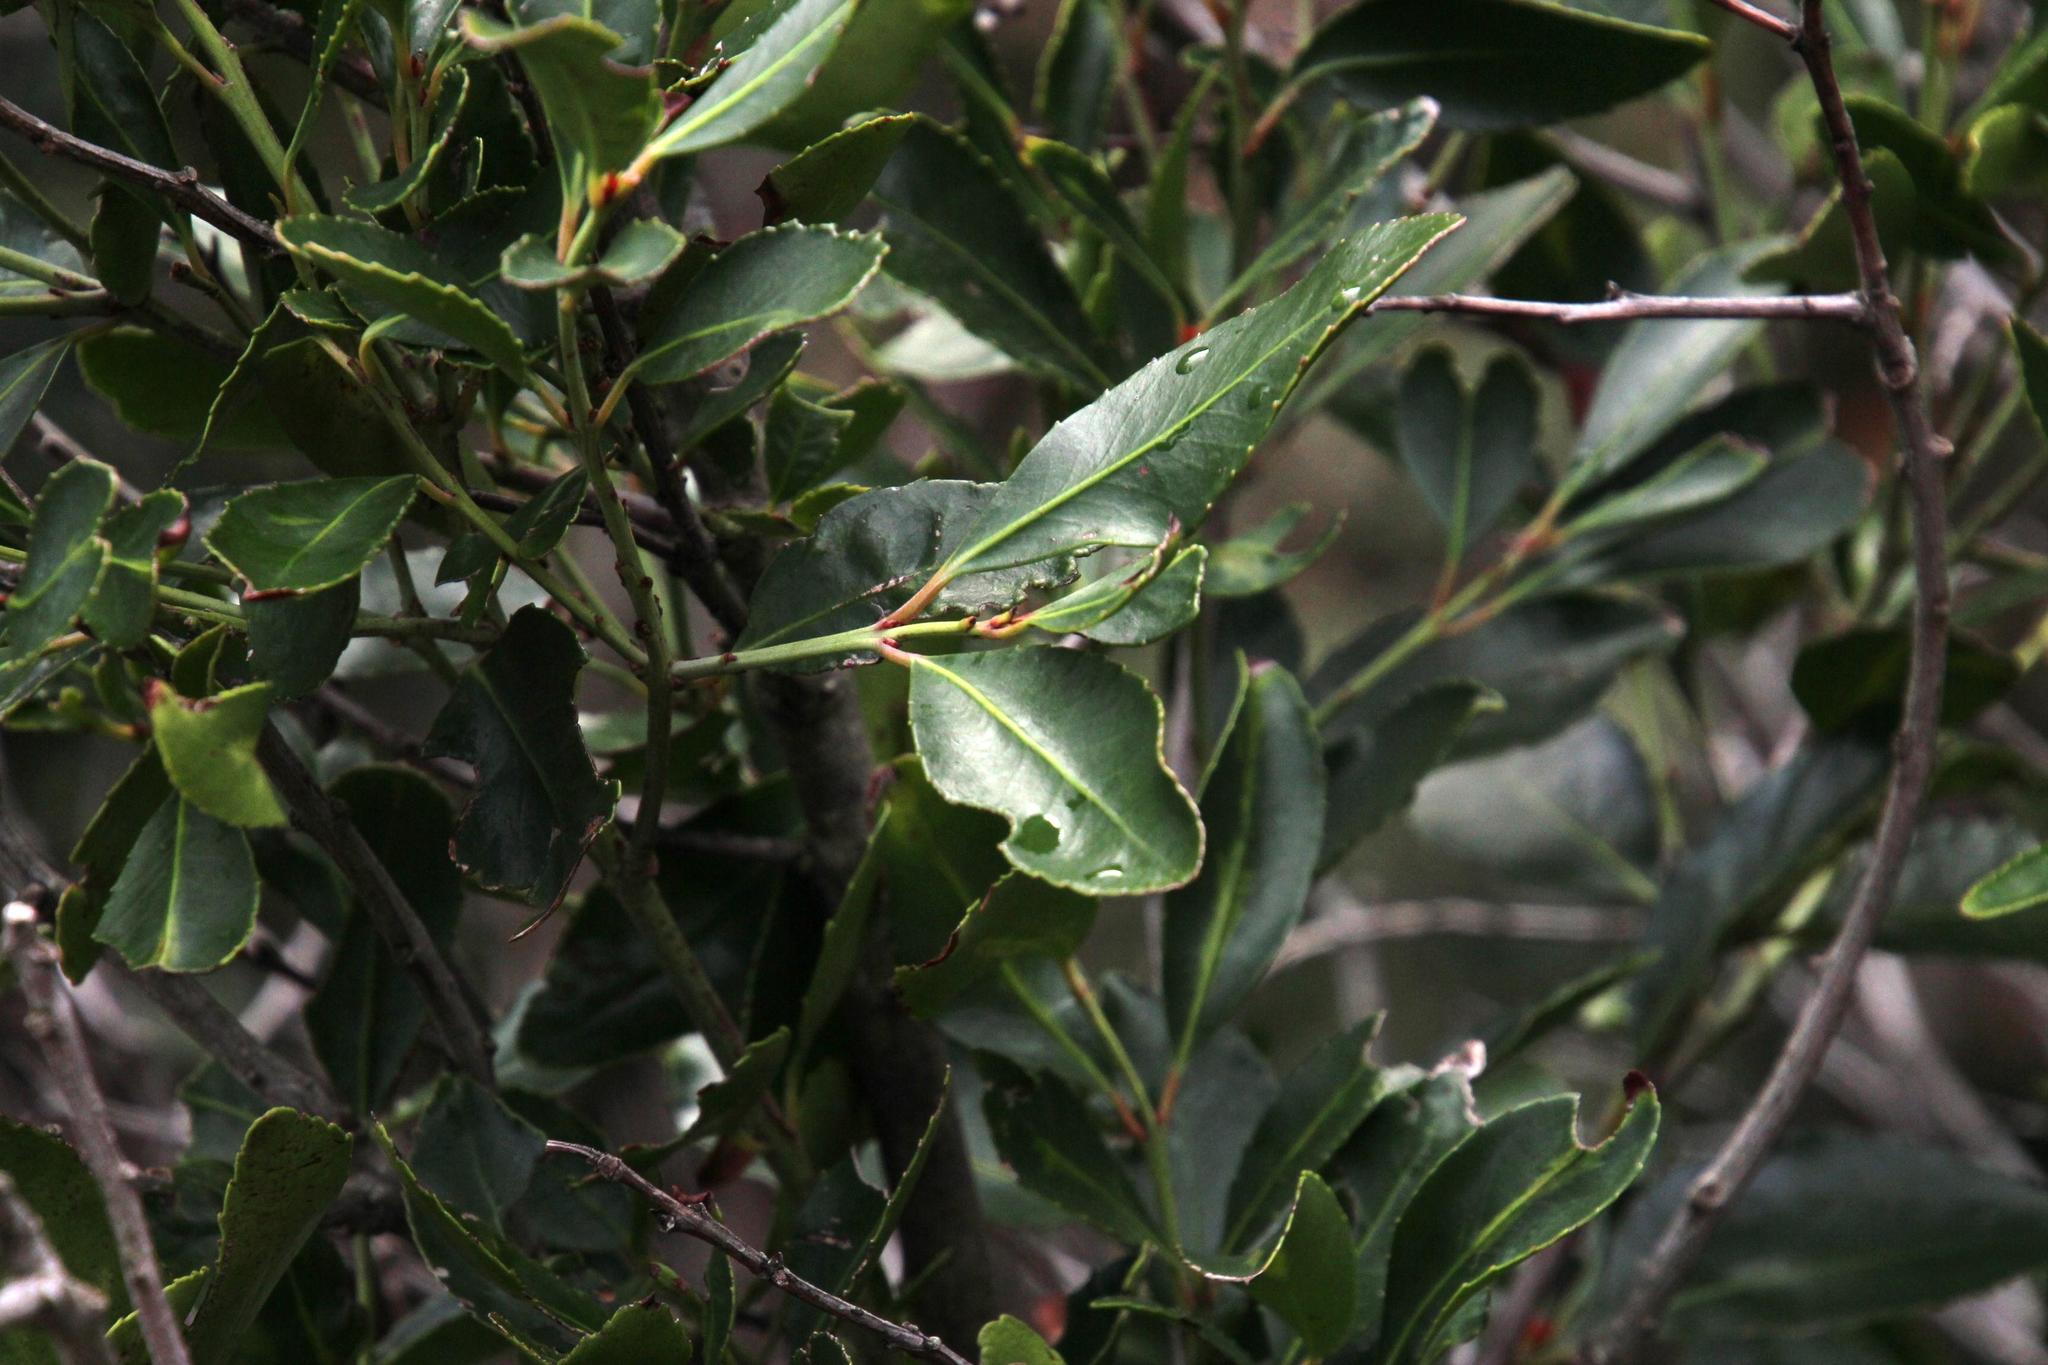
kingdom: Plantae
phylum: Tracheophyta
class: Magnoliopsida
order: Celastrales
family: Celastraceae
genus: Elaeodendron
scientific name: Elaeodendron schinoides
